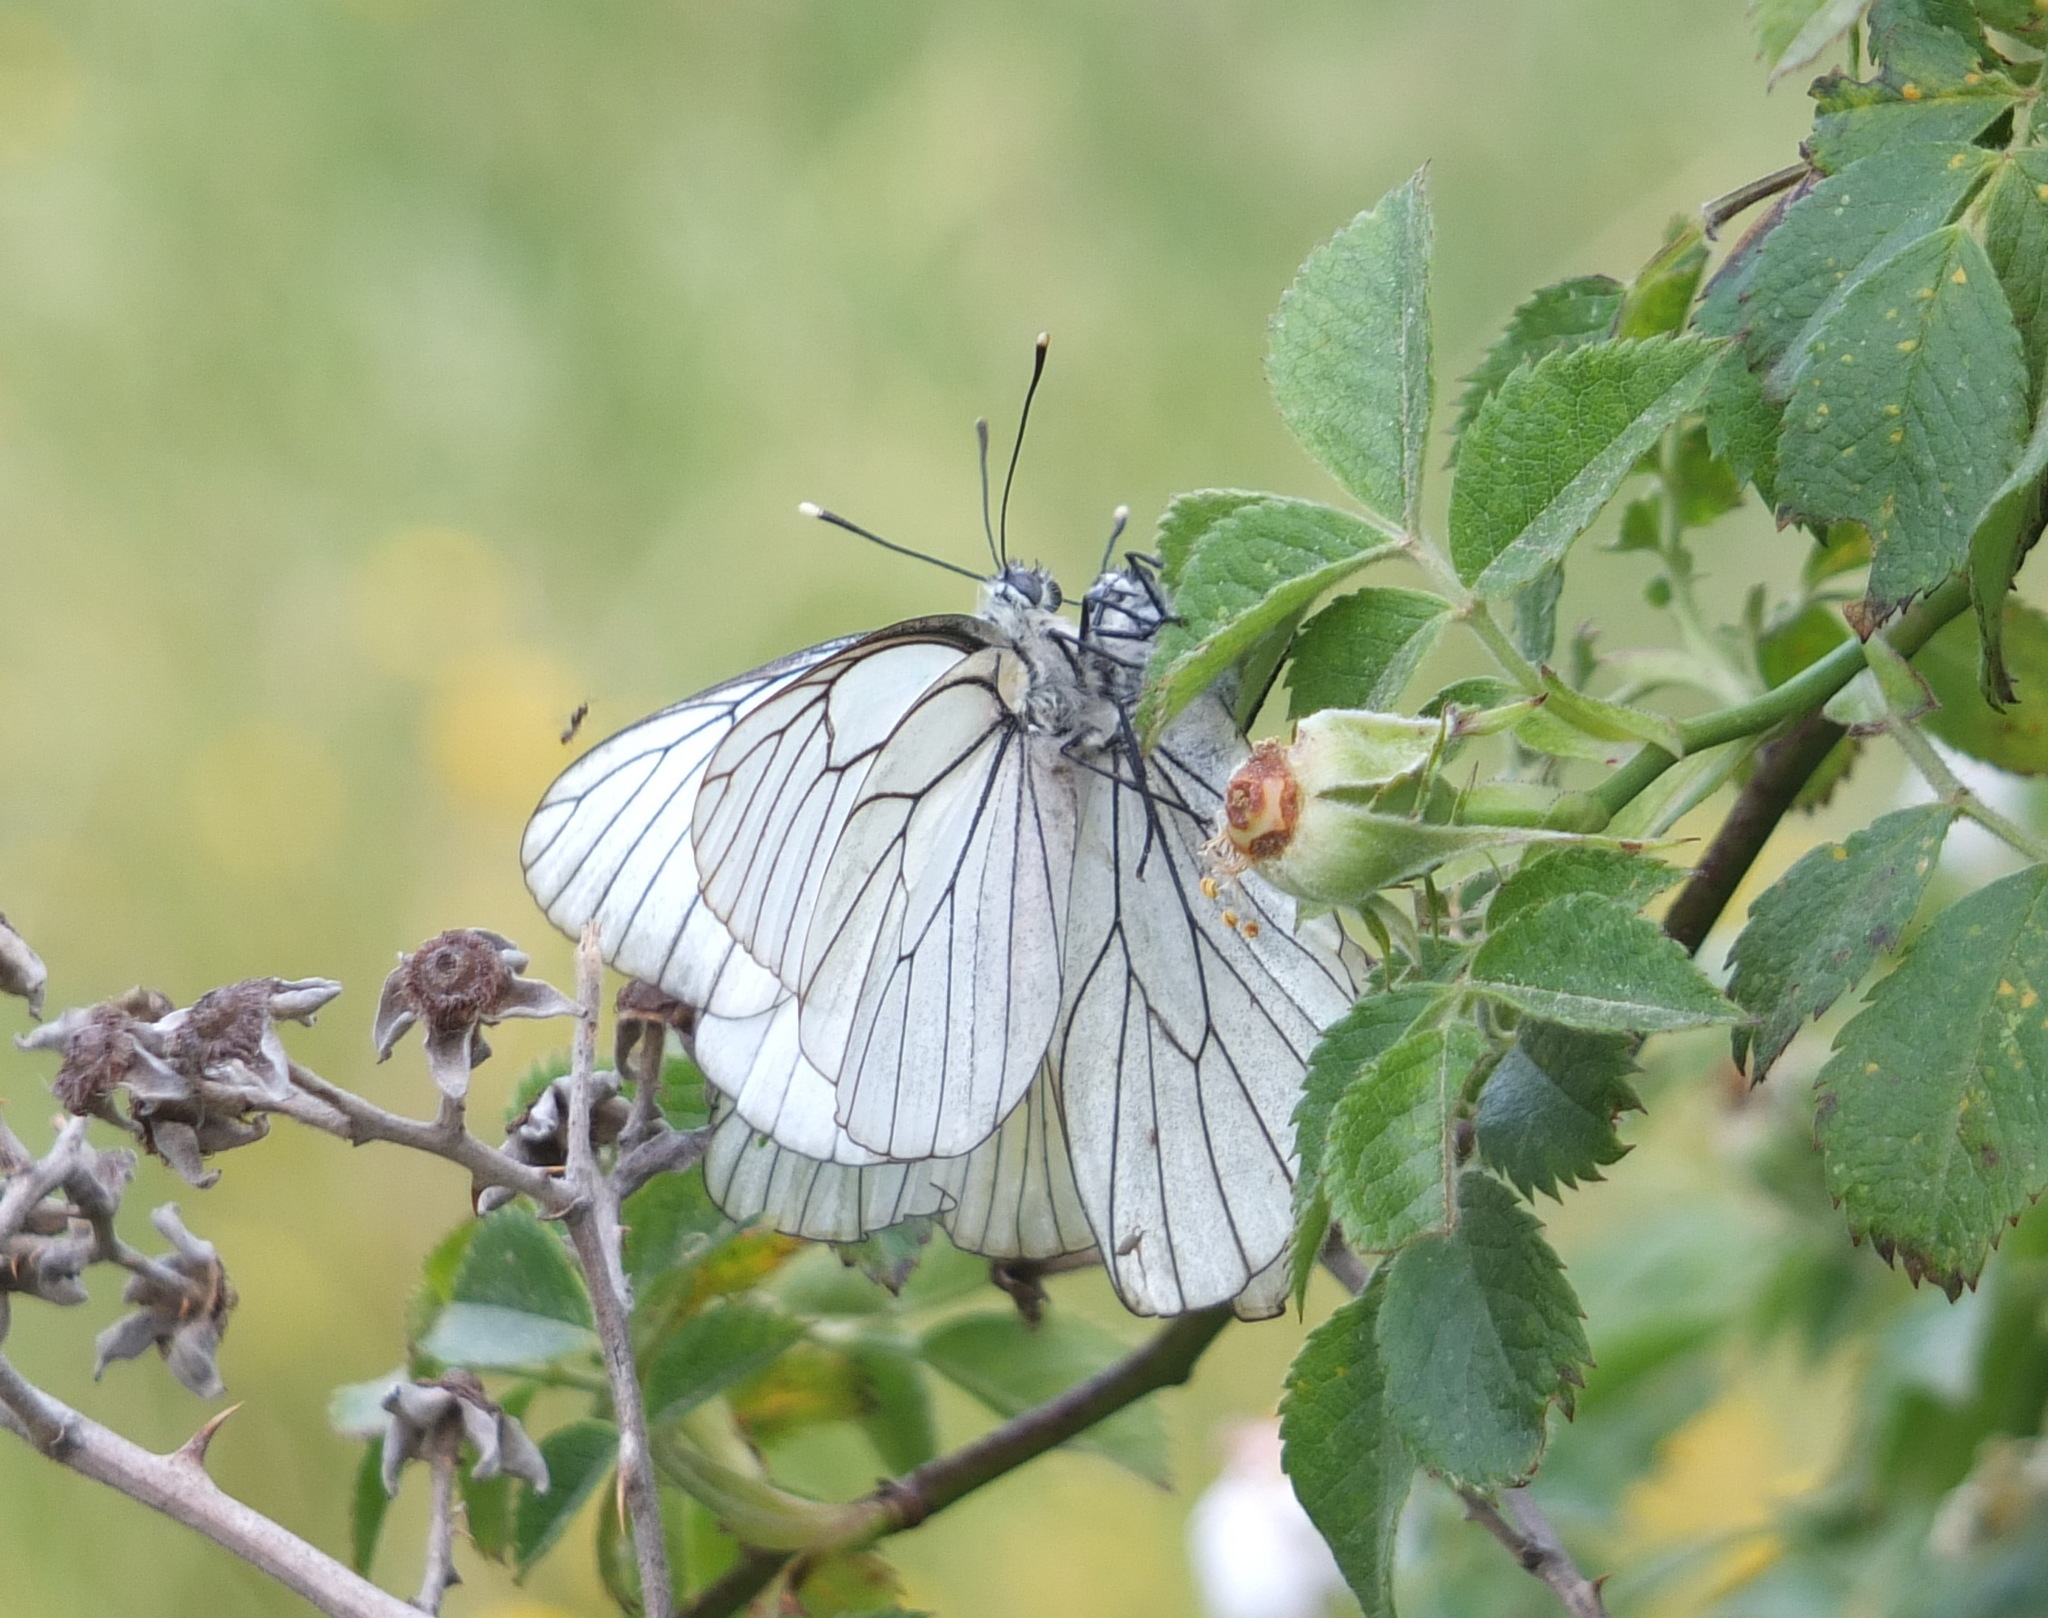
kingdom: Animalia
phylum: Arthropoda
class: Insecta
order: Lepidoptera
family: Pieridae
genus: Aporia
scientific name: Aporia crataegi
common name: Black-veined white
